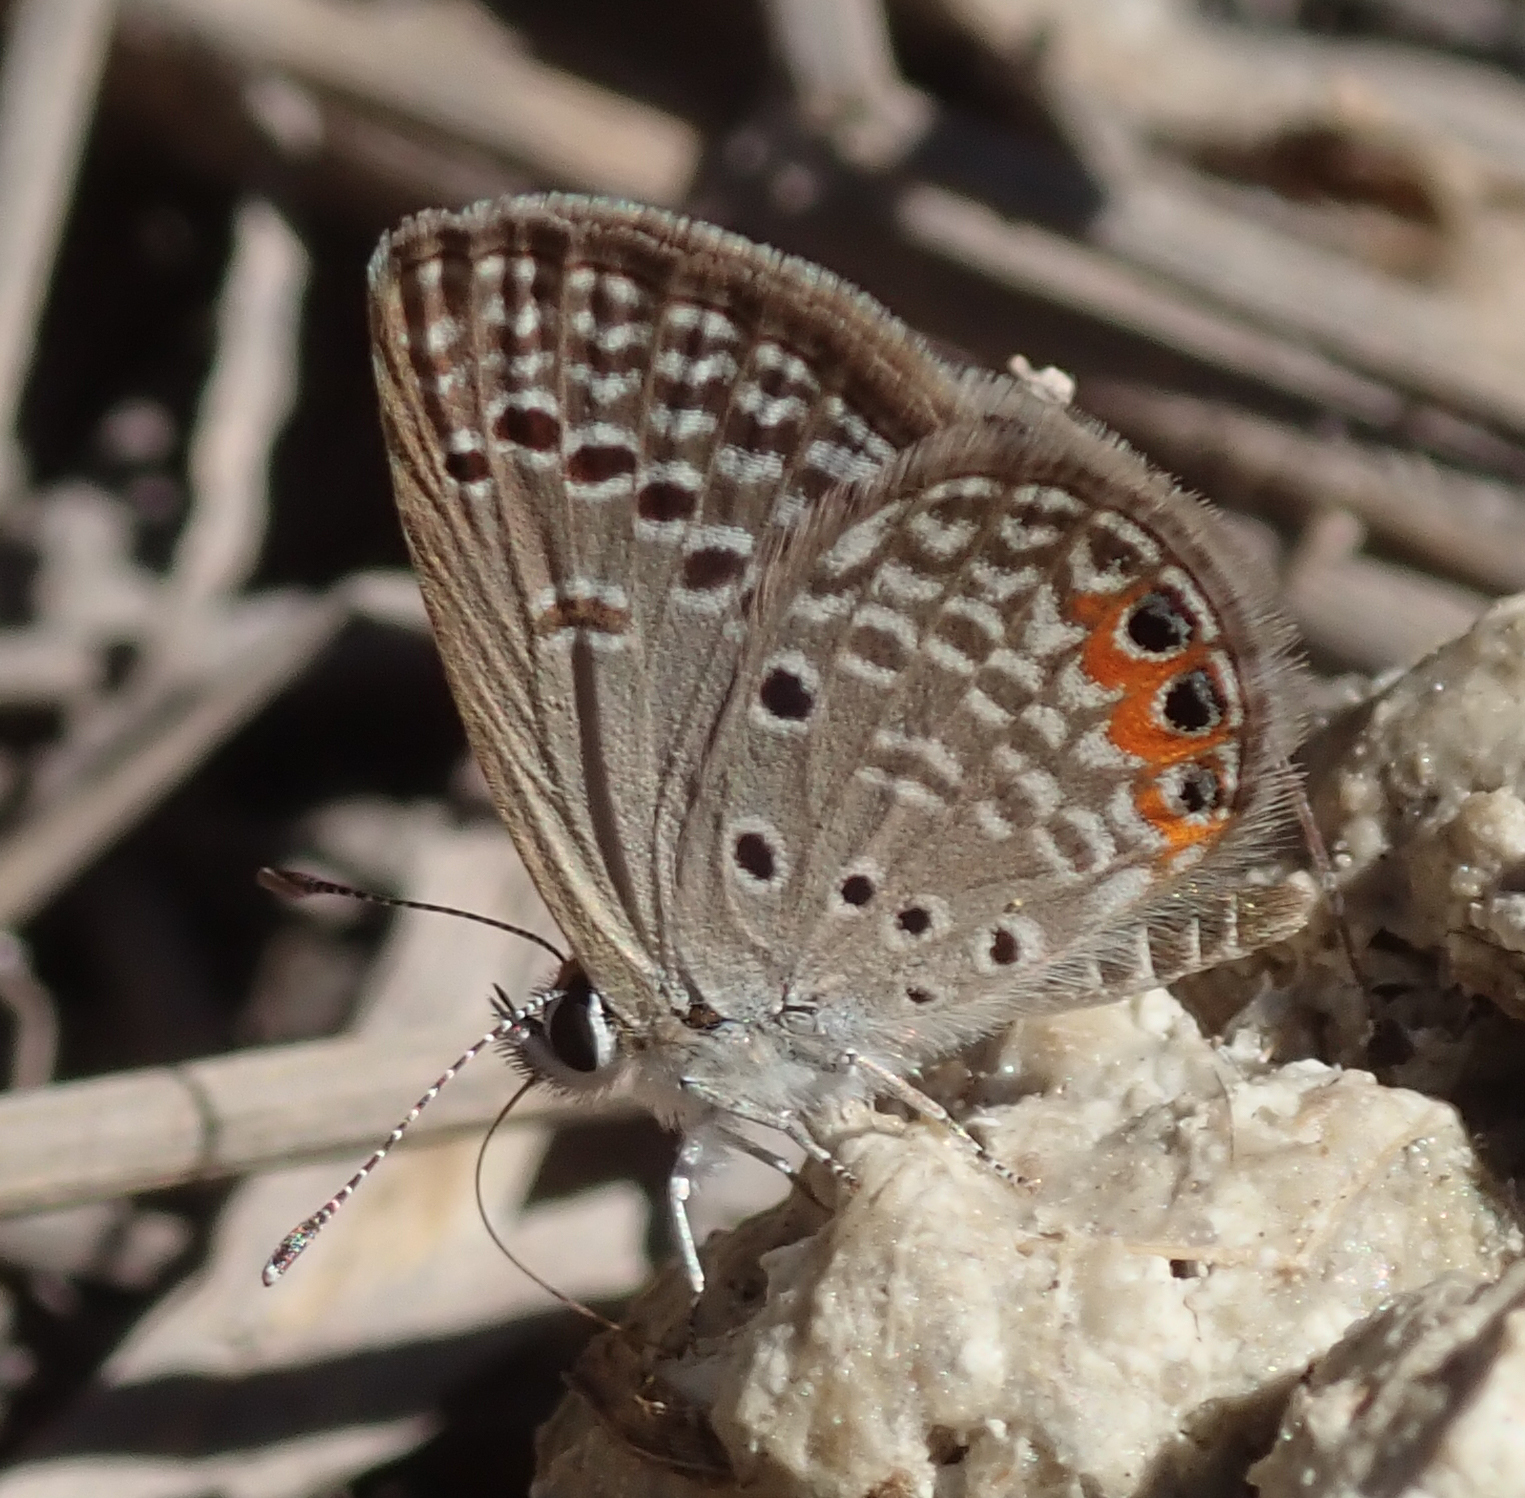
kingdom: Animalia
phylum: Arthropoda
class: Insecta
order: Lepidoptera
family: Lycaenidae
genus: Freyeria
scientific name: Freyeria trochylus
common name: Grass jewel
